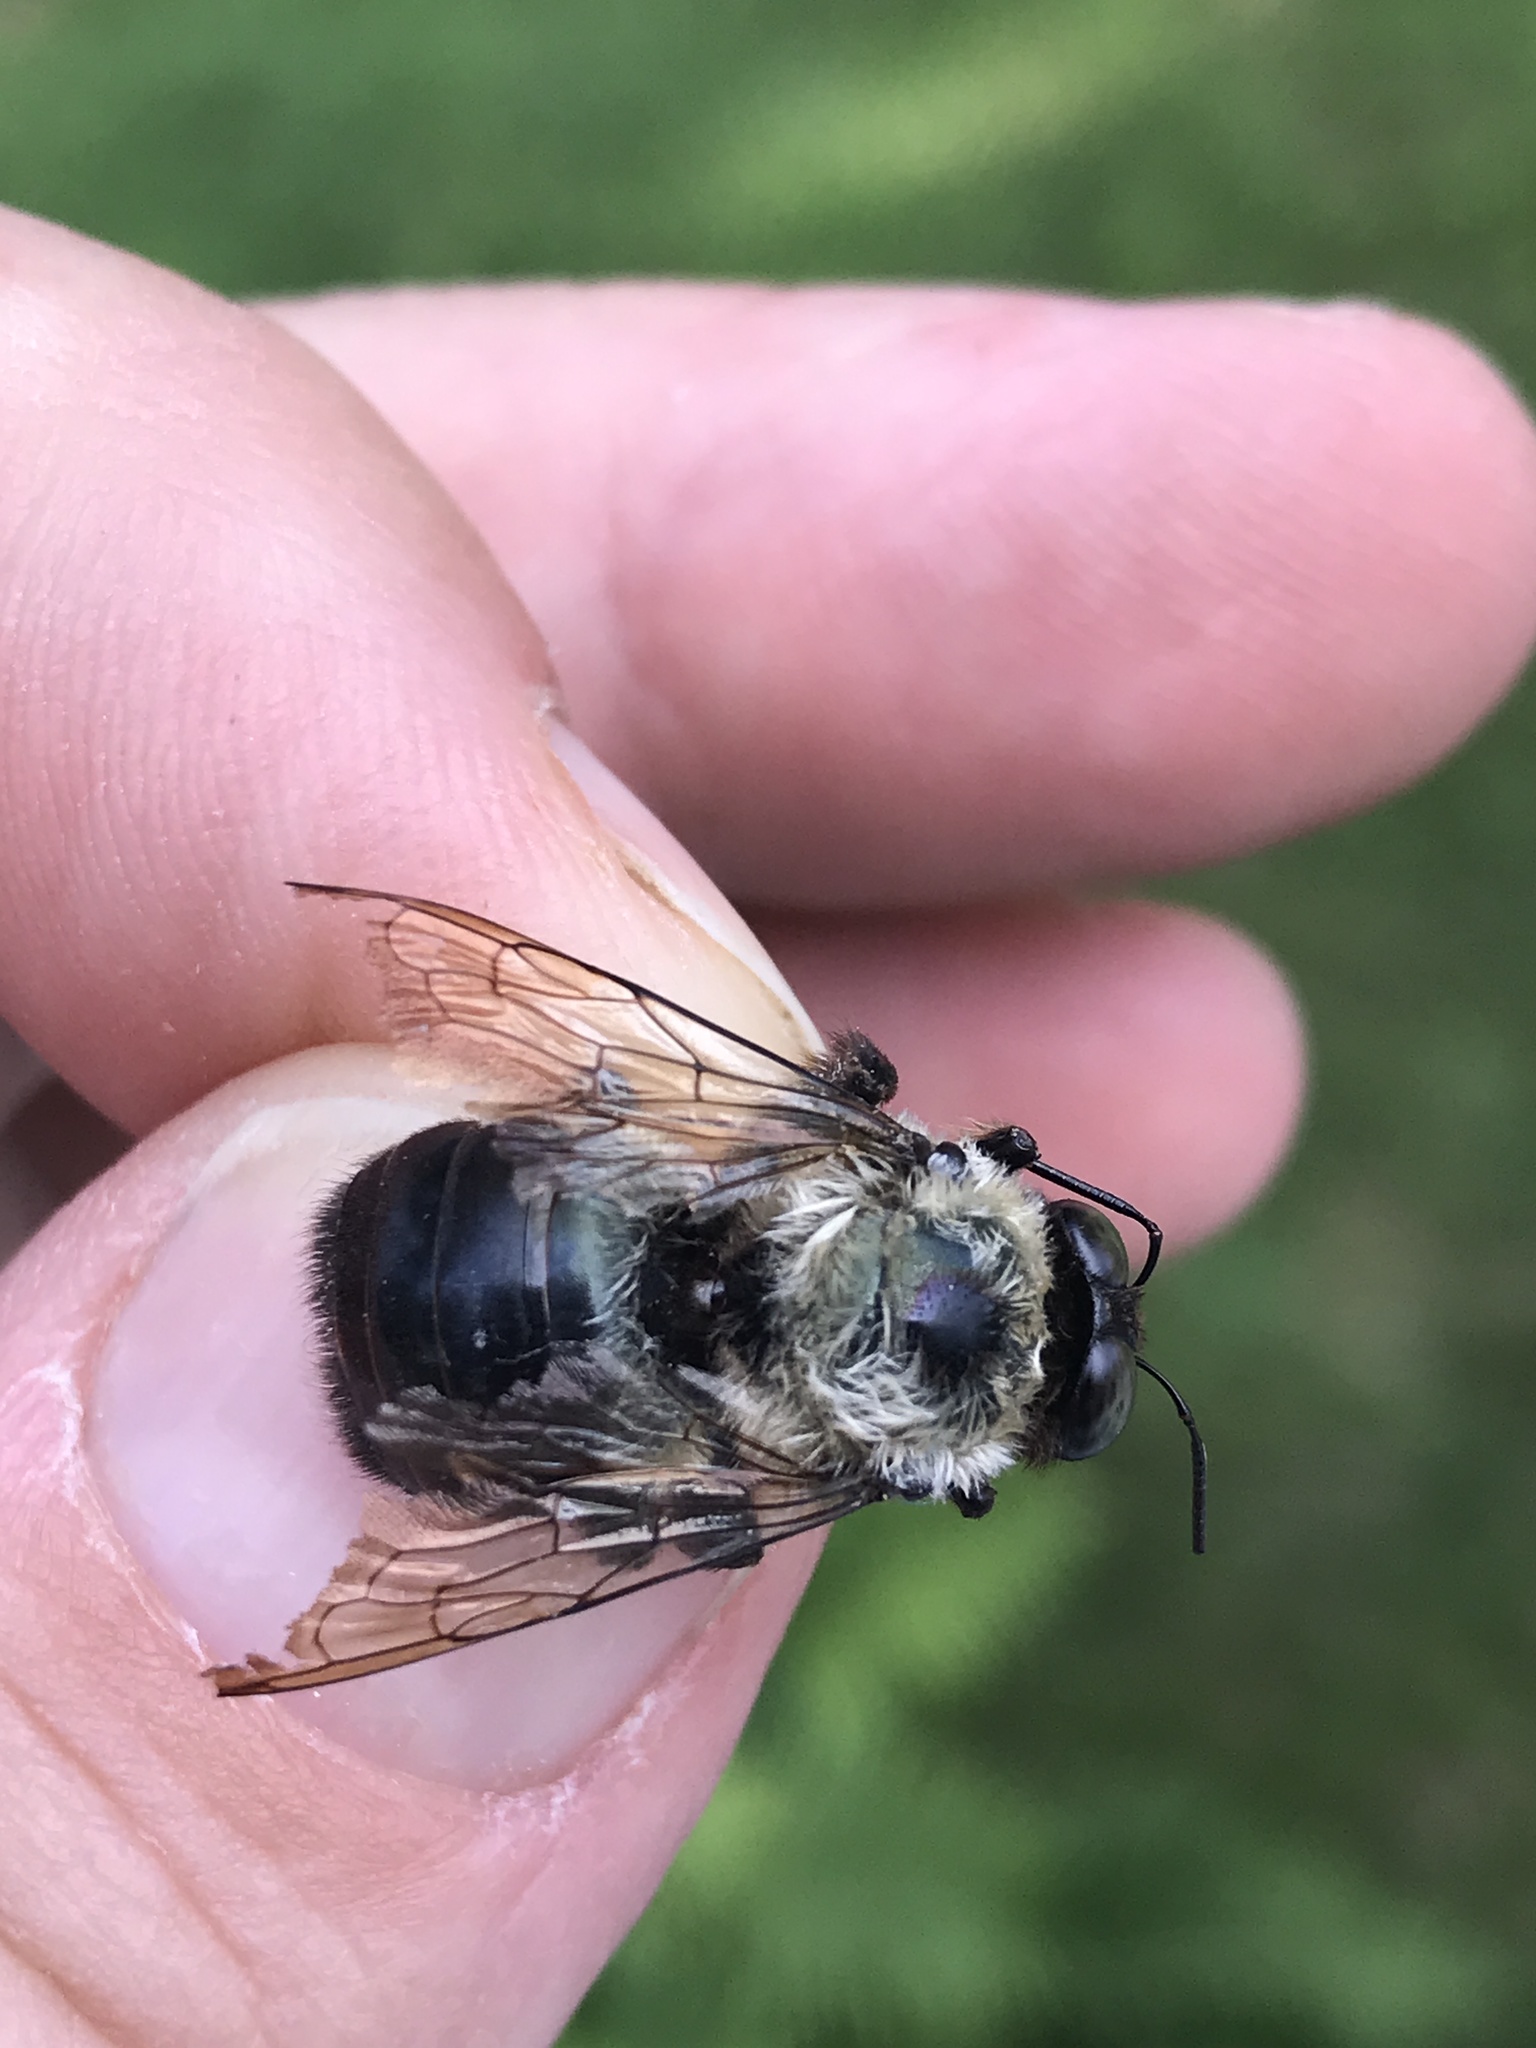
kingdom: Animalia
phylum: Arthropoda
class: Insecta
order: Hymenoptera
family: Apidae
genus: Xylocopa
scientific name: Xylocopa virginica
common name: Carpenter bee
